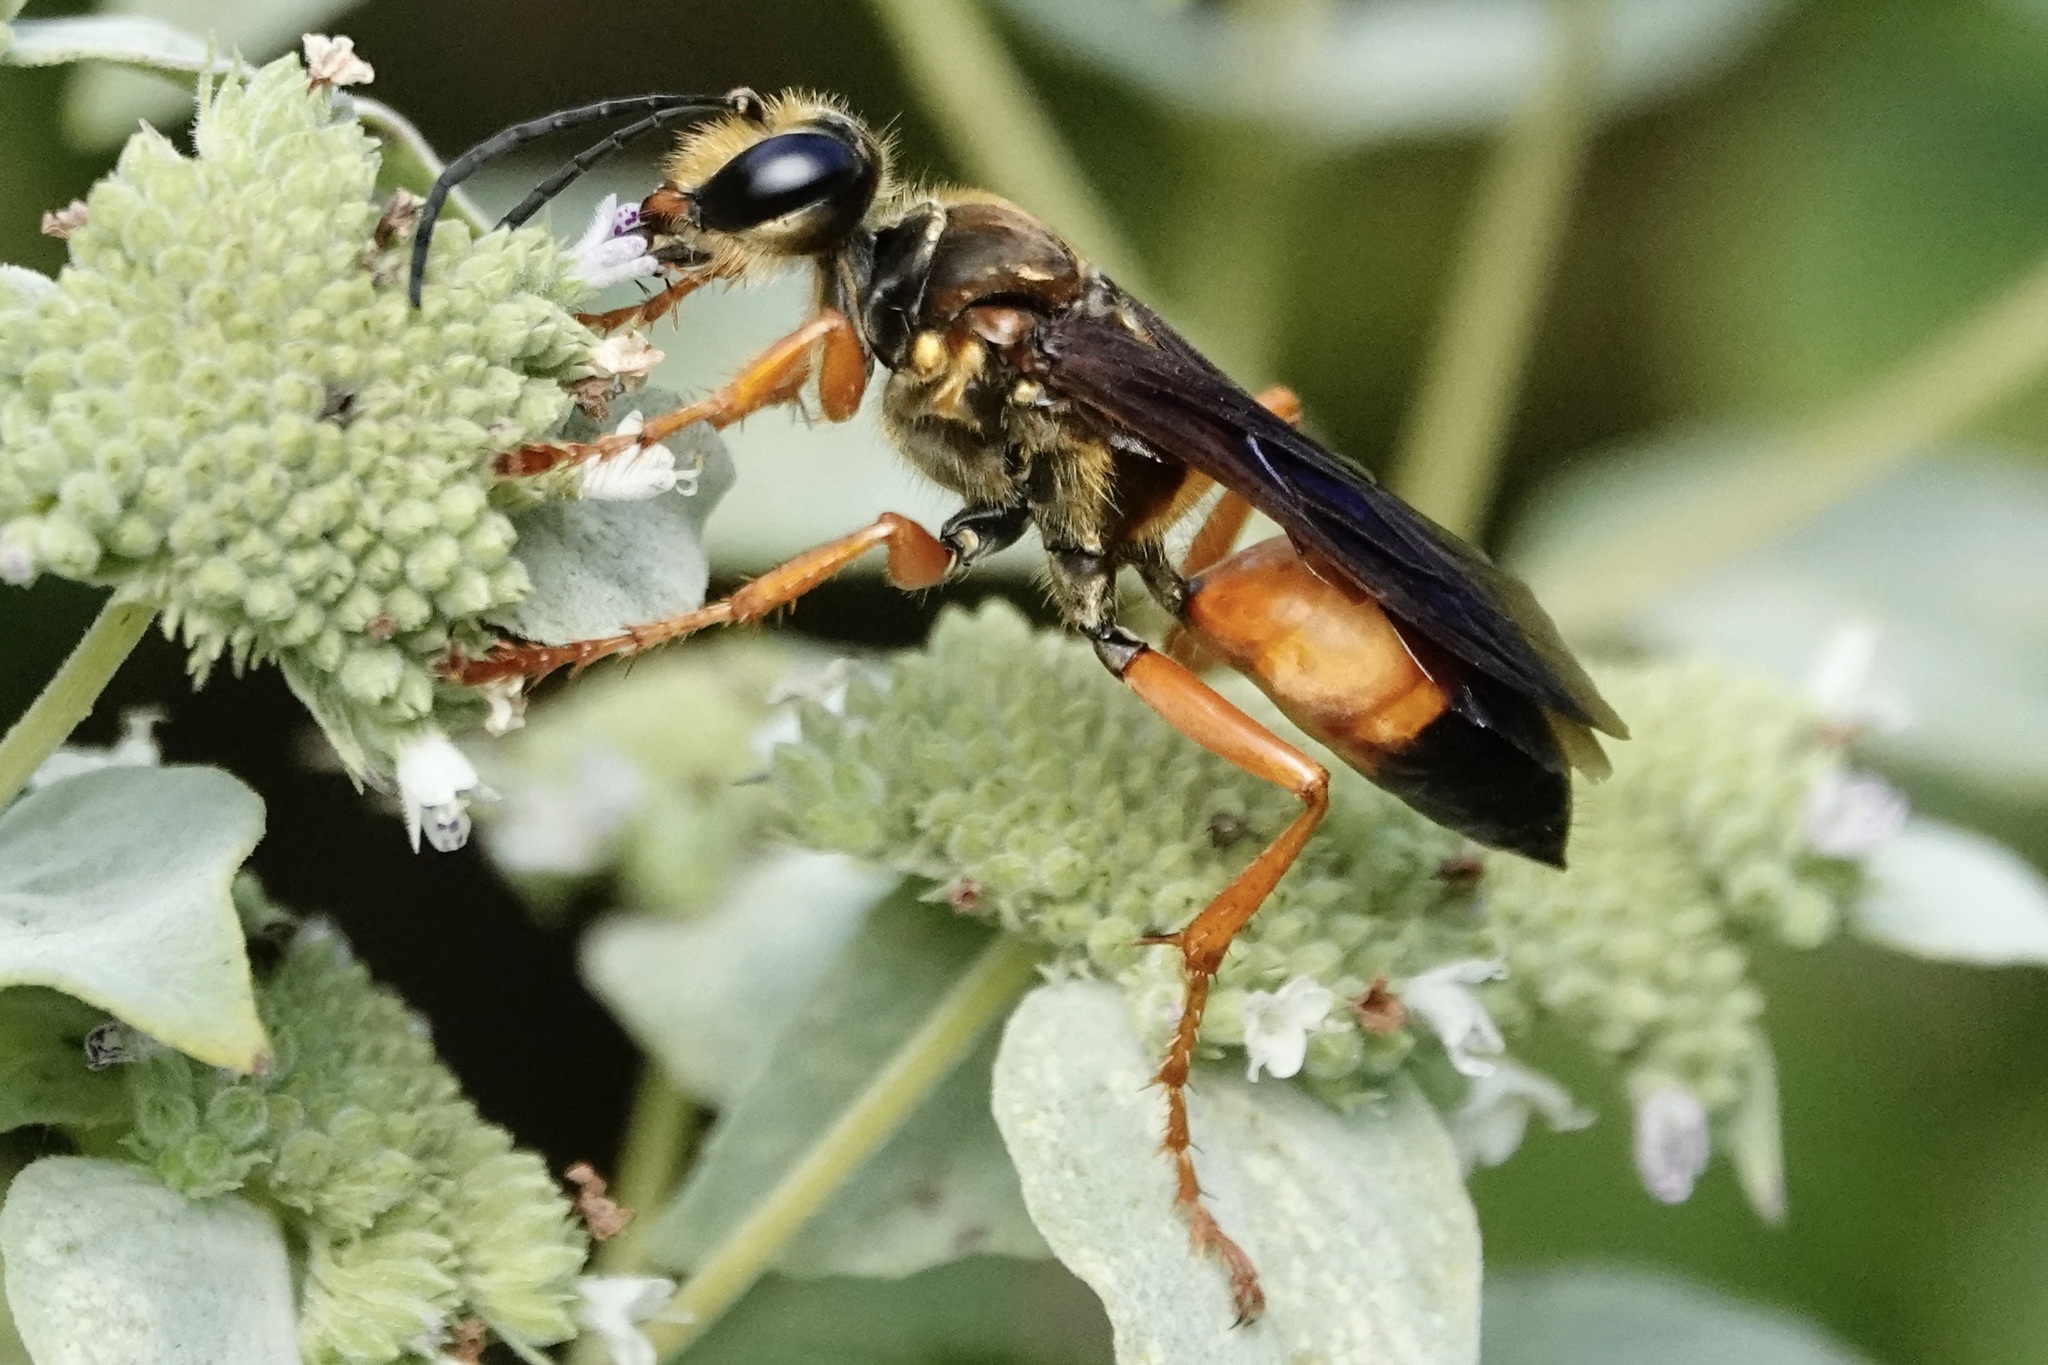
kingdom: Animalia
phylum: Arthropoda
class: Insecta
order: Hymenoptera
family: Sphecidae
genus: Sphex
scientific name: Sphex ichneumoneus
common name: Great golden digger wasp
